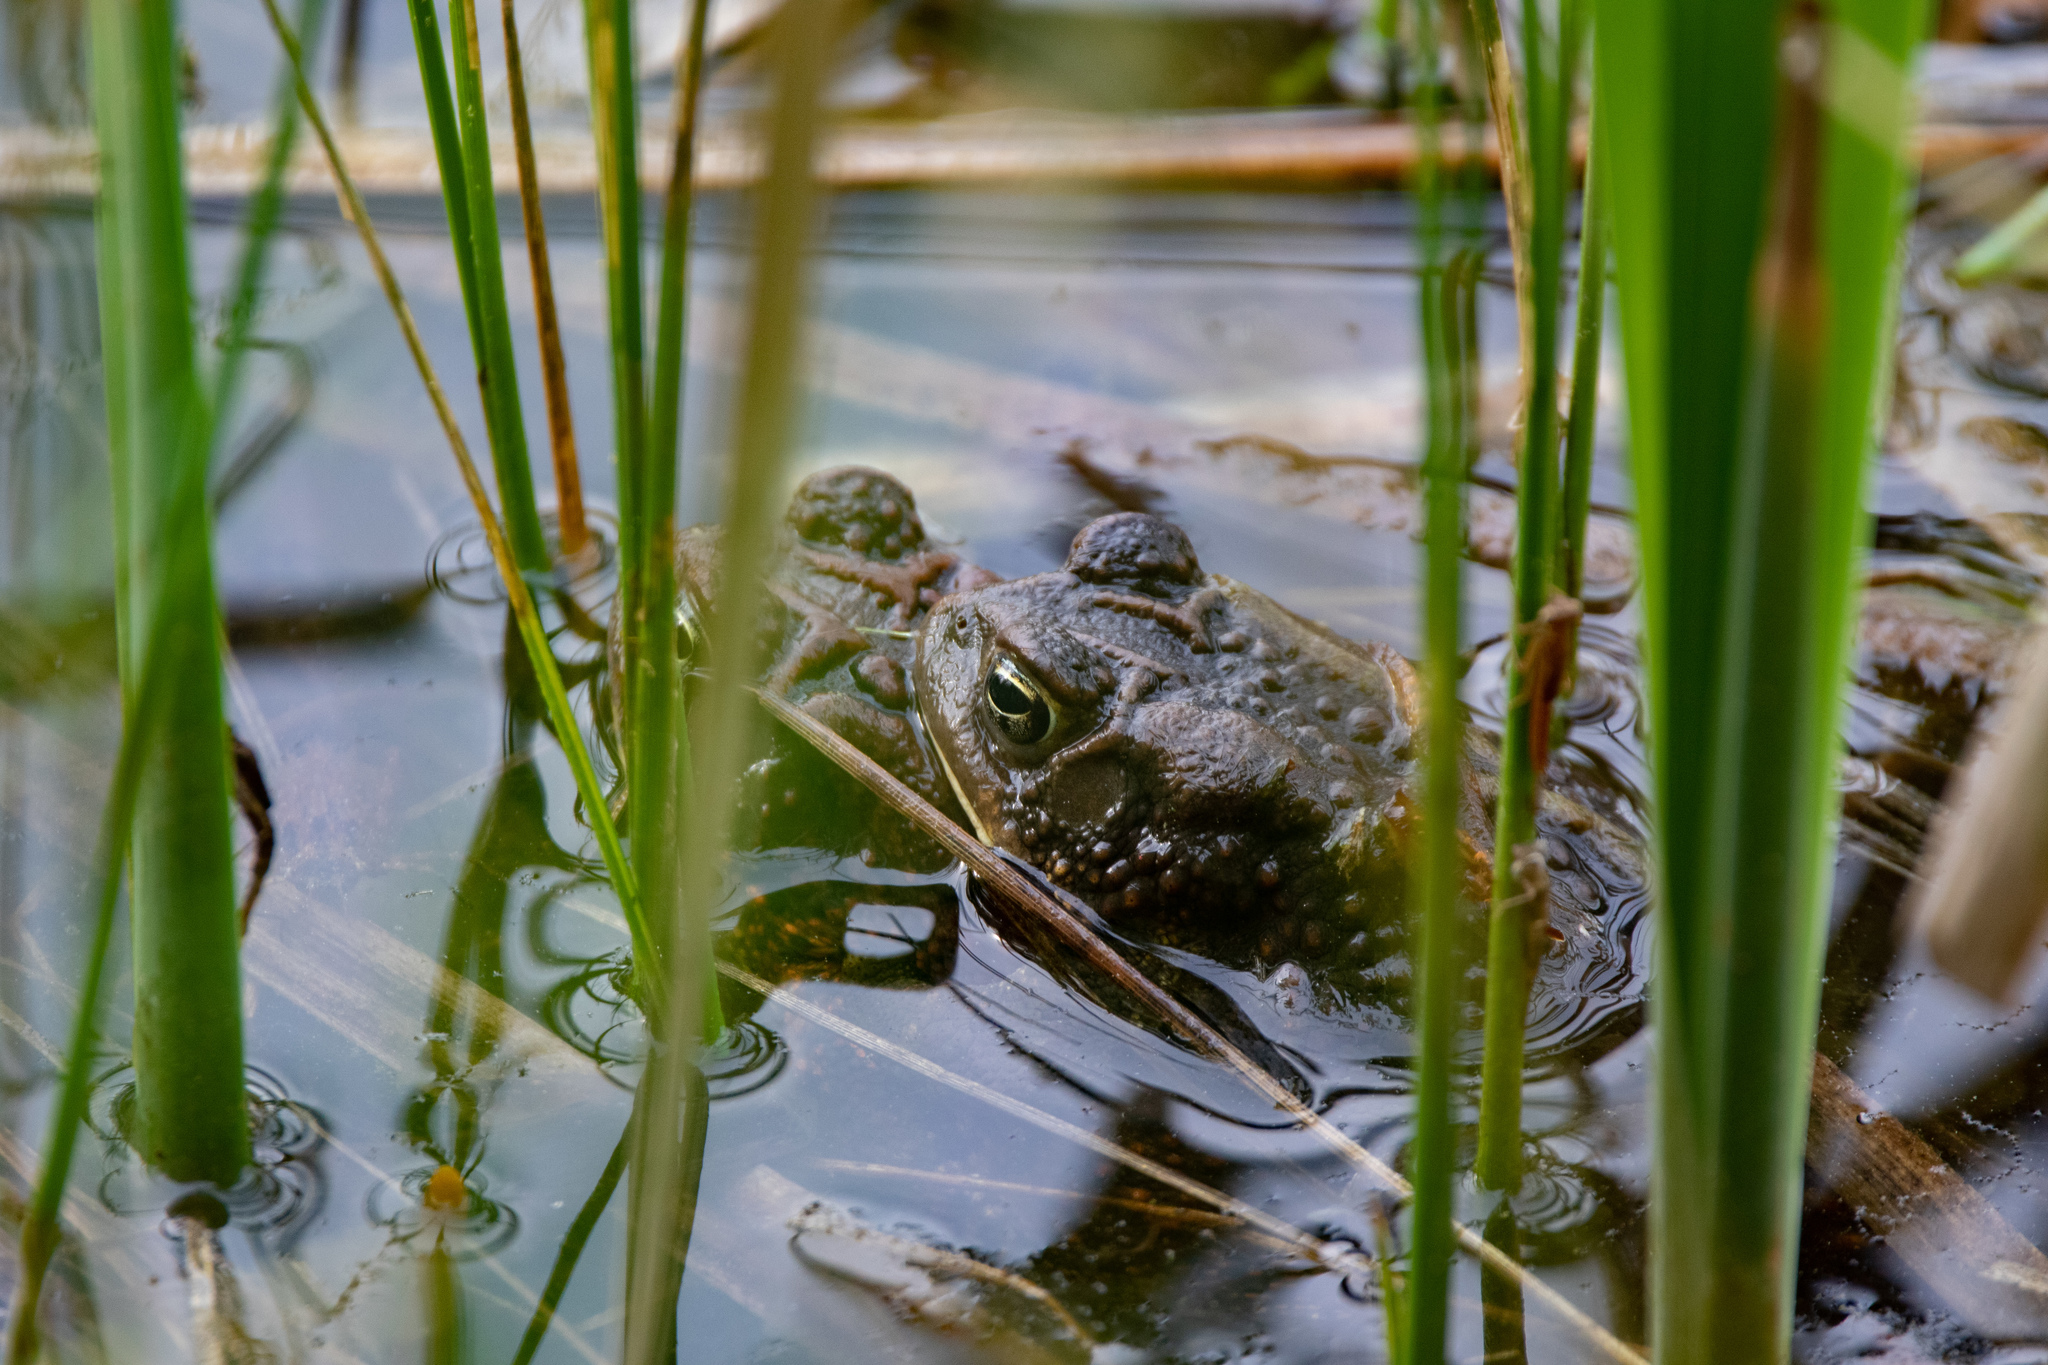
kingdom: Animalia
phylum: Chordata
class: Amphibia
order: Anura
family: Bufonidae
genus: Anaxyrus
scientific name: Anaxyrus americanus
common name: American toad
